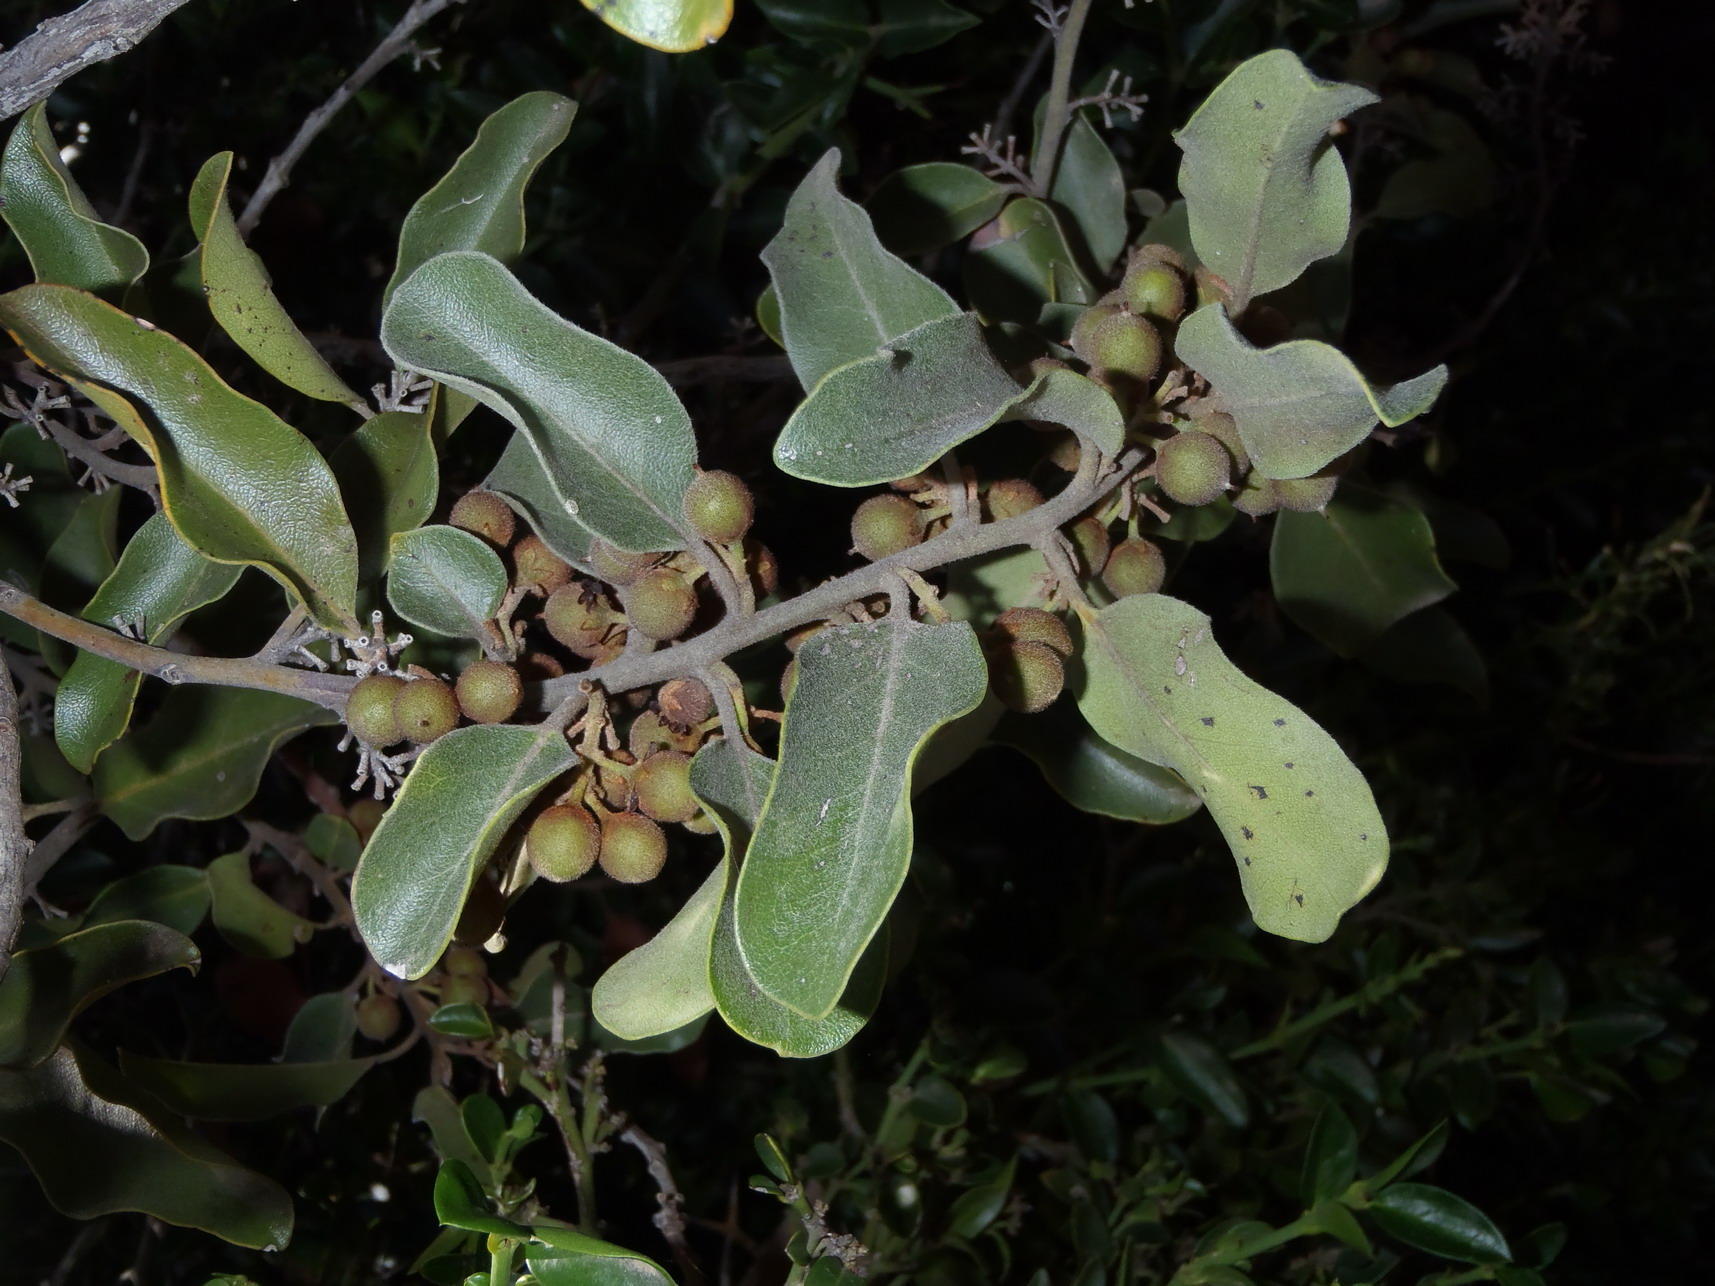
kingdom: Plantae
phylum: Tracheophyta
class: Magnoliopsida
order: Ericales
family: Ebenaceae
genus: Euclea
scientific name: Euclea undulata
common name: Small-leaved guarri
